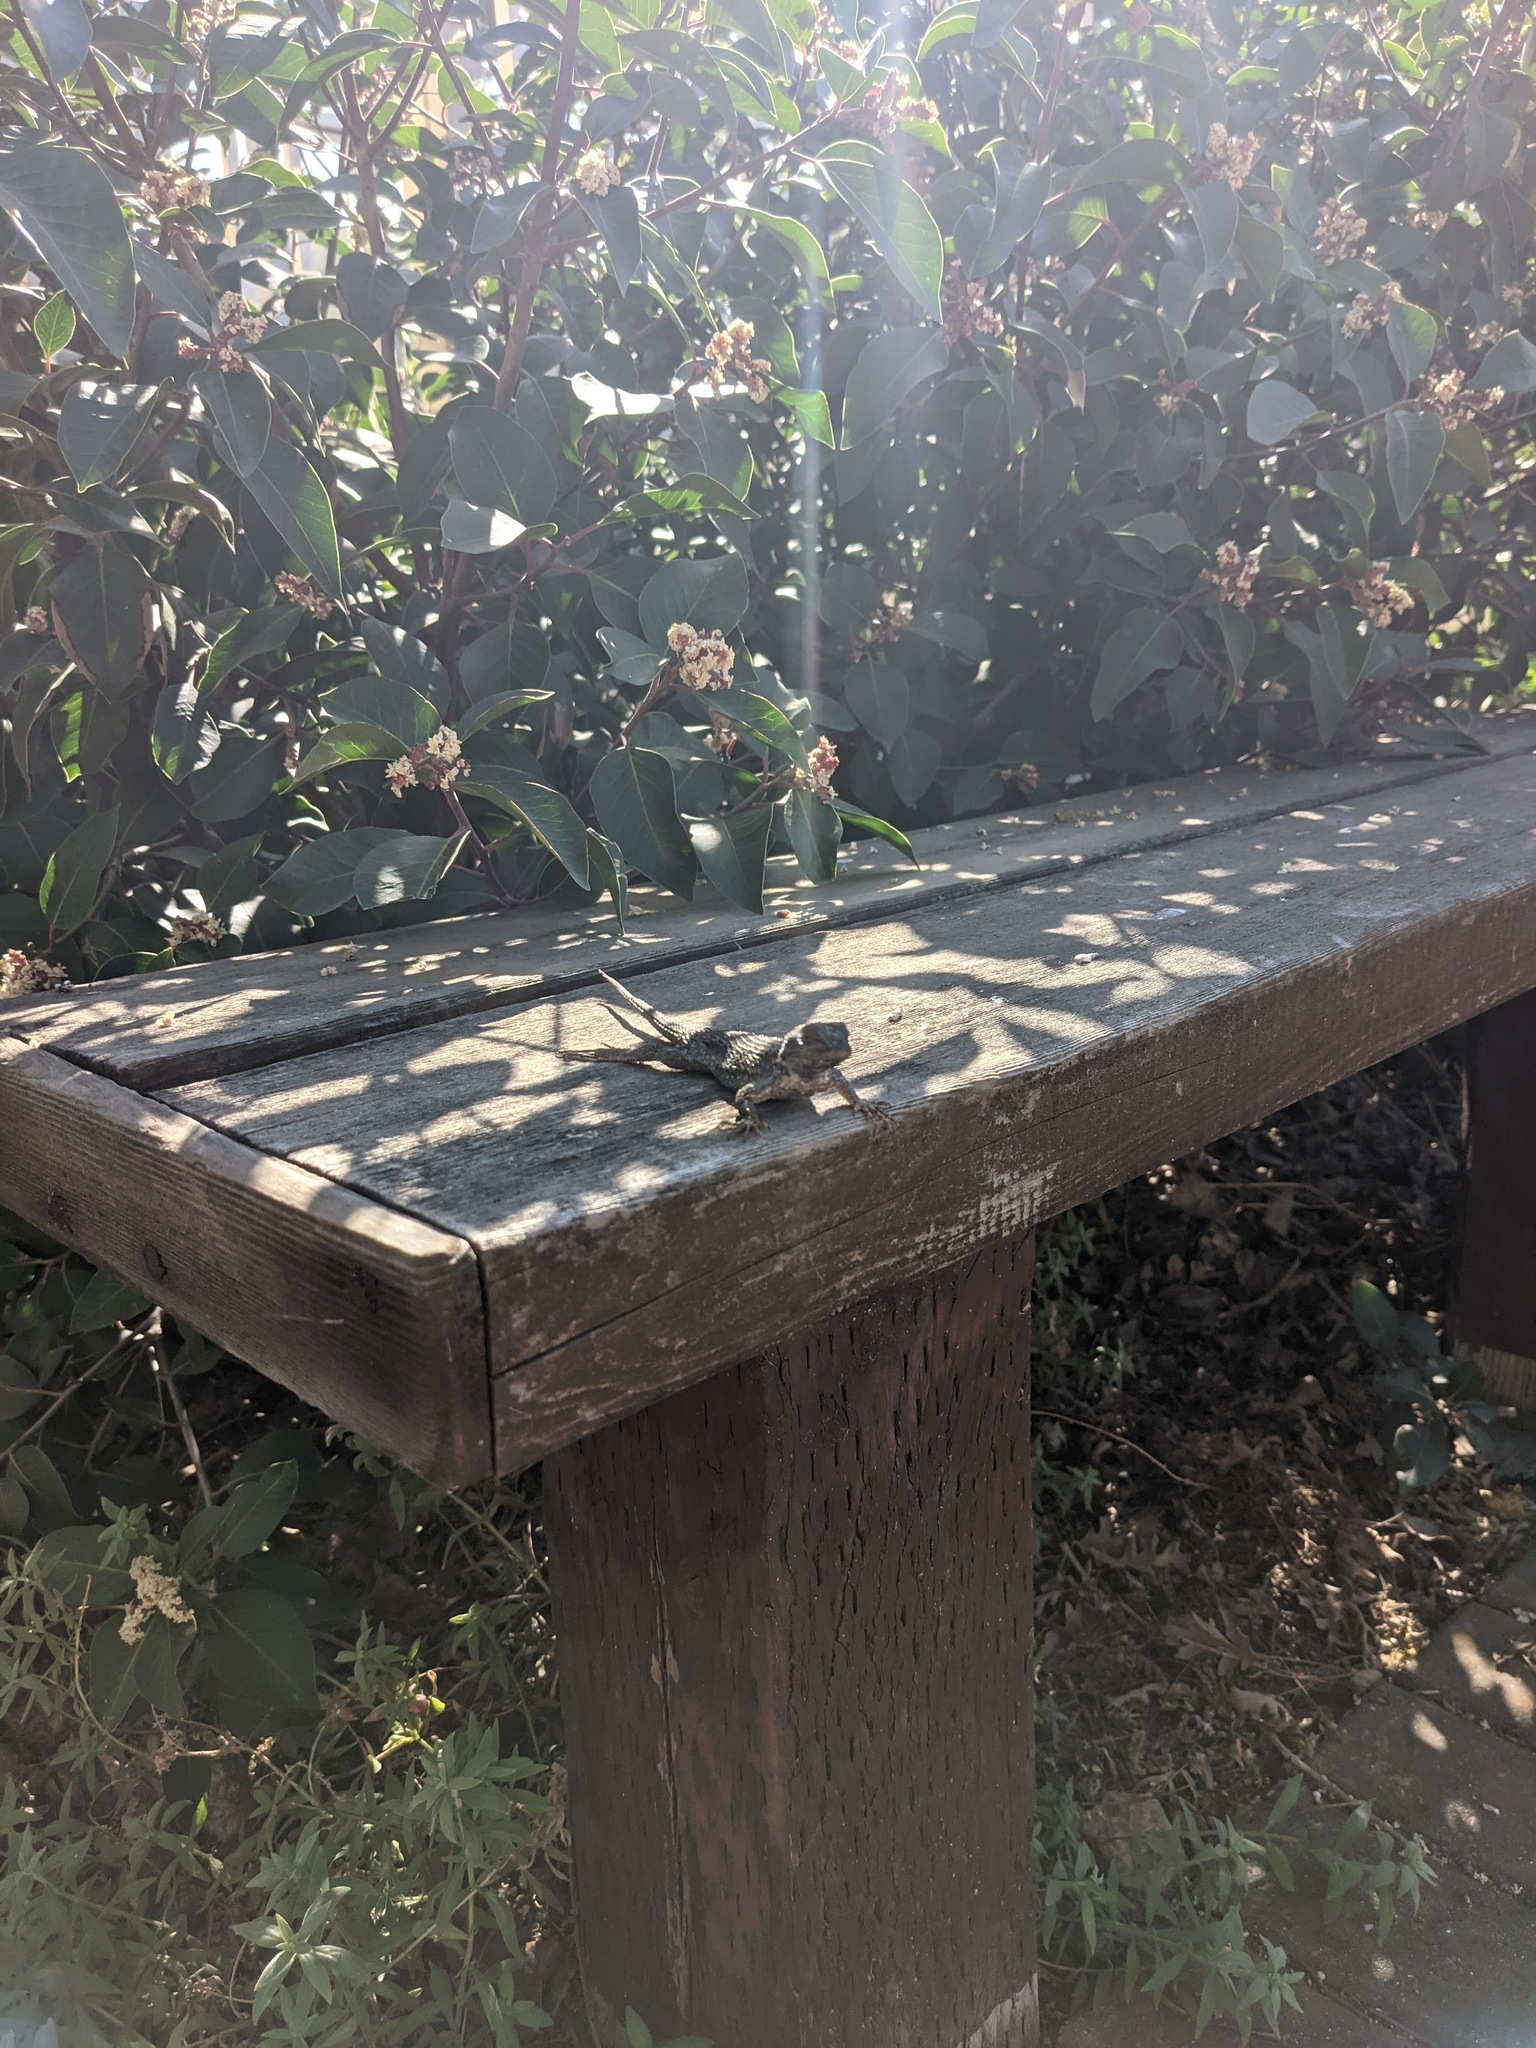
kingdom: Animalia
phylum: Chordata
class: Squamata
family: Phrynosomatidae
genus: Sceloporus
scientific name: Sceloporus occidentalis
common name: Western fence lizard
